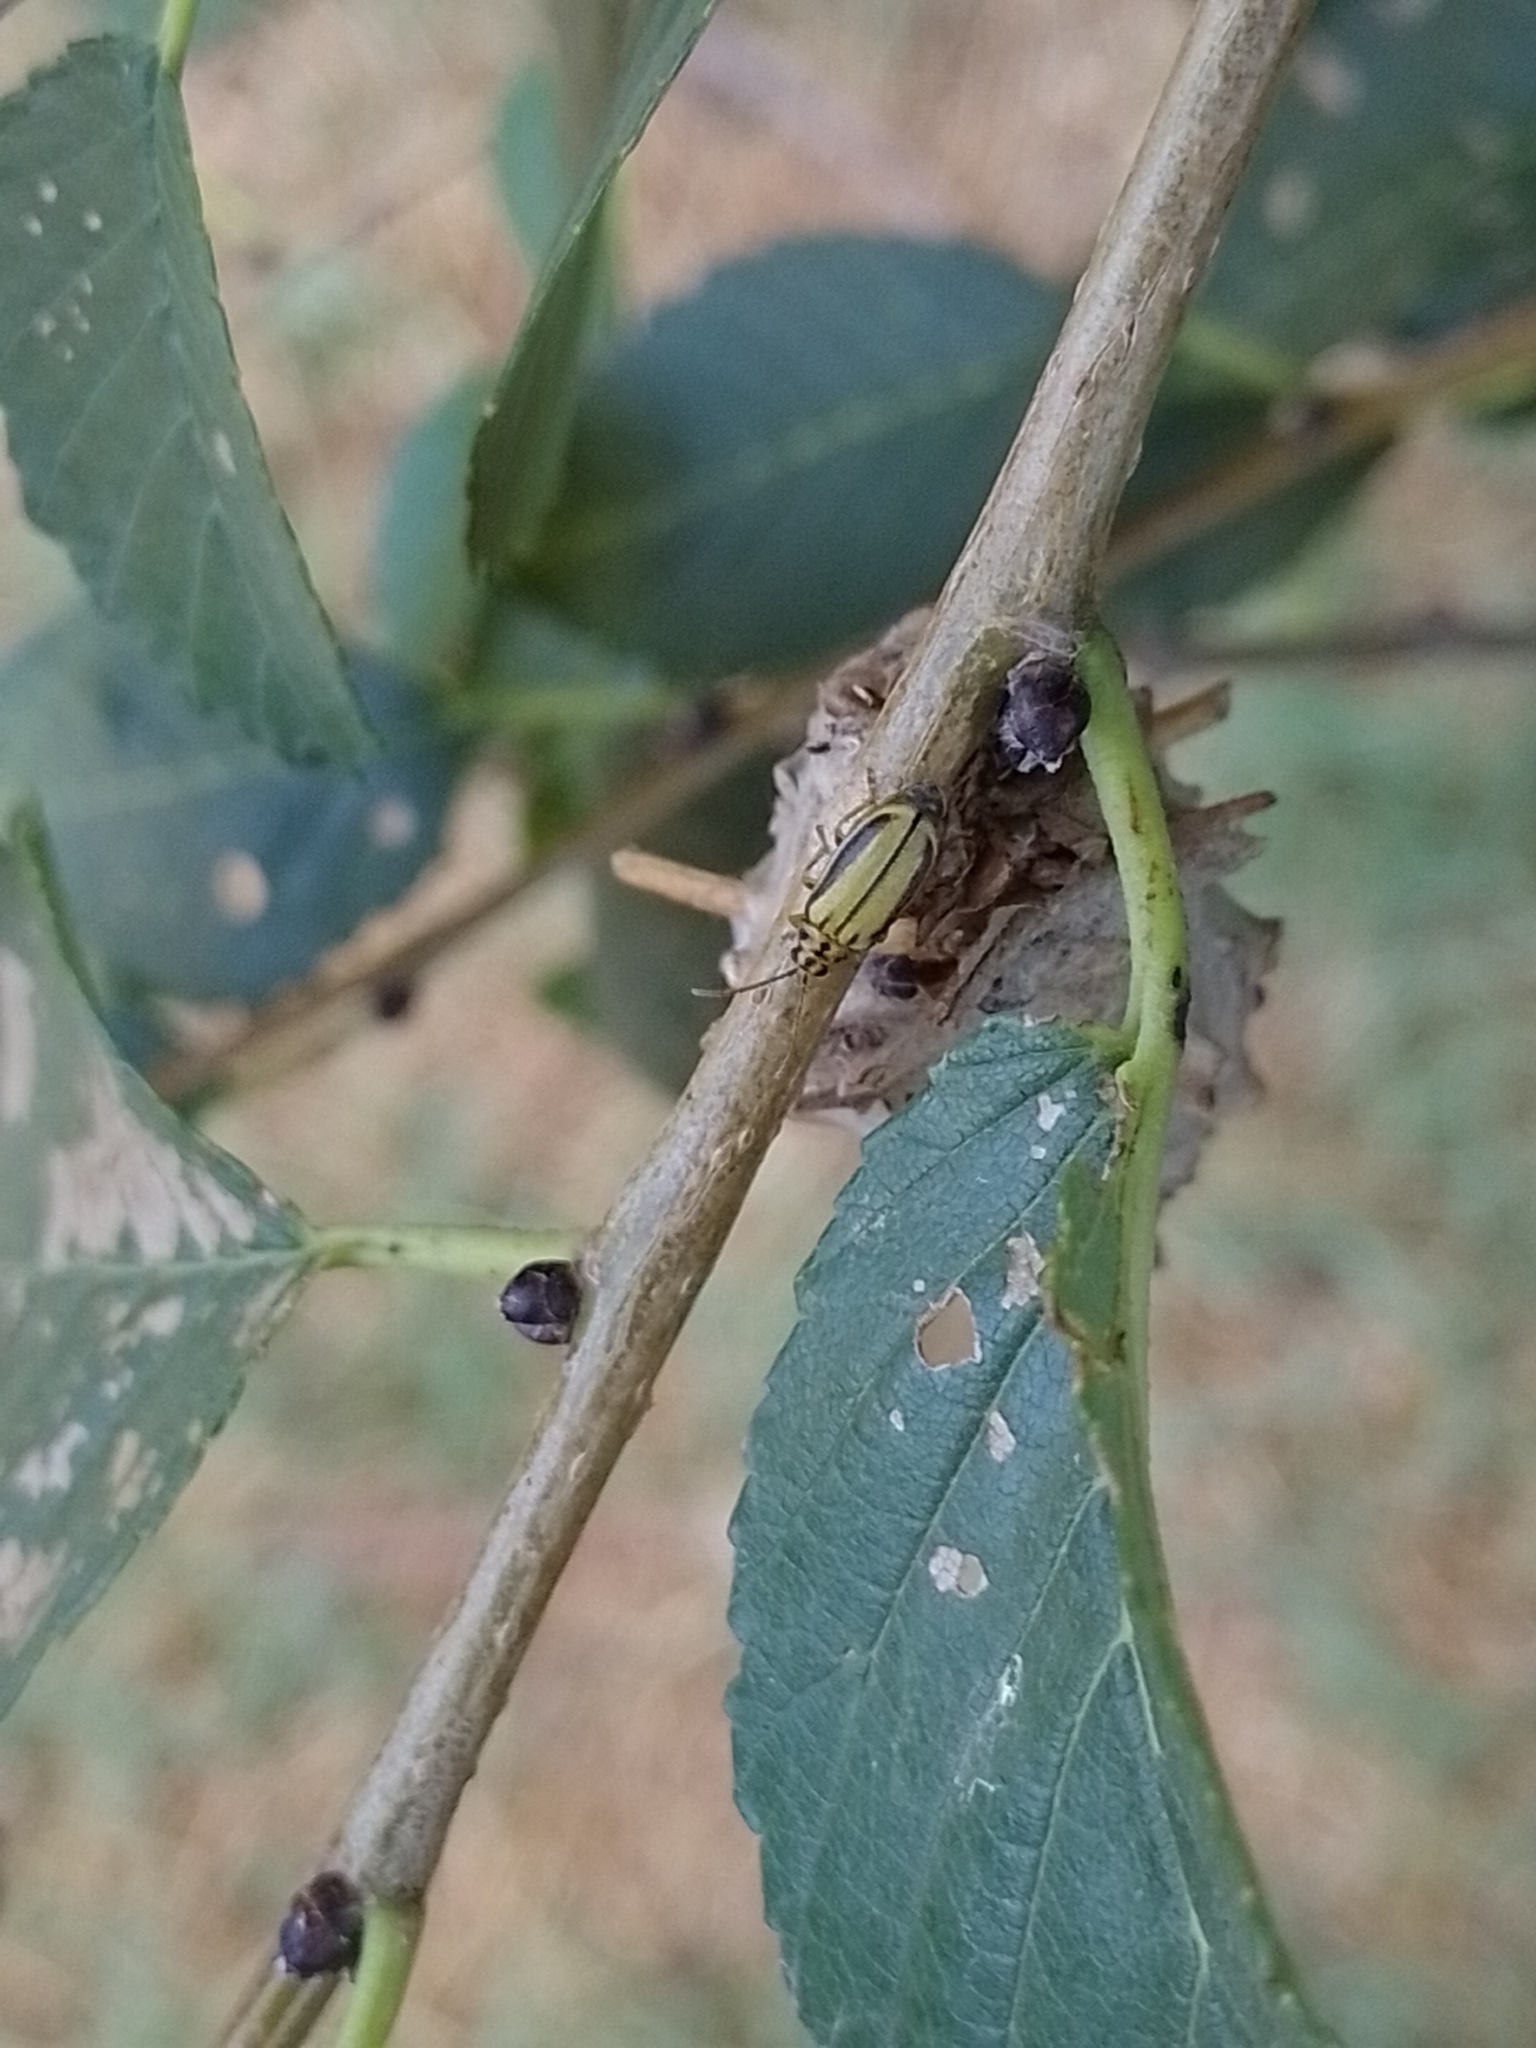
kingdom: Animalia
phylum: Arthropoda
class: Insecta
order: Coleoptera
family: Chrysomelidae
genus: Xanthogaleruca
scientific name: Xanthogaleruca luteola
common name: Elm leaf beetle
